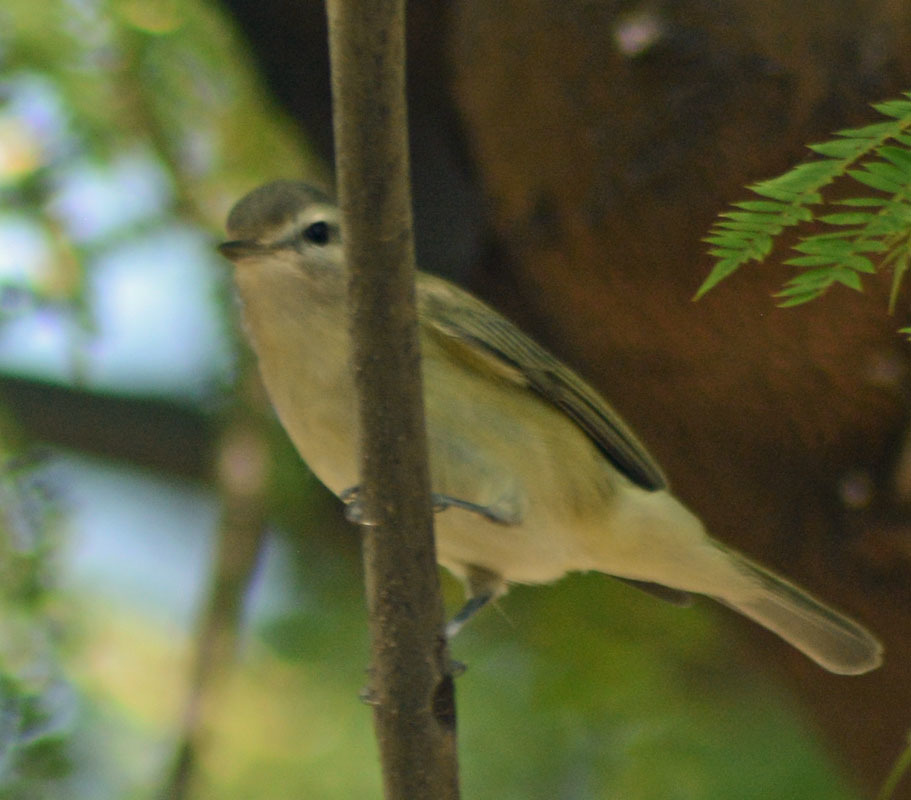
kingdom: Animalia
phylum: Chordata
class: Aves
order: Passeriformes
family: Vireonidae
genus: Vireo
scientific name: Vireo gilvus
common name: Warbling vireo
